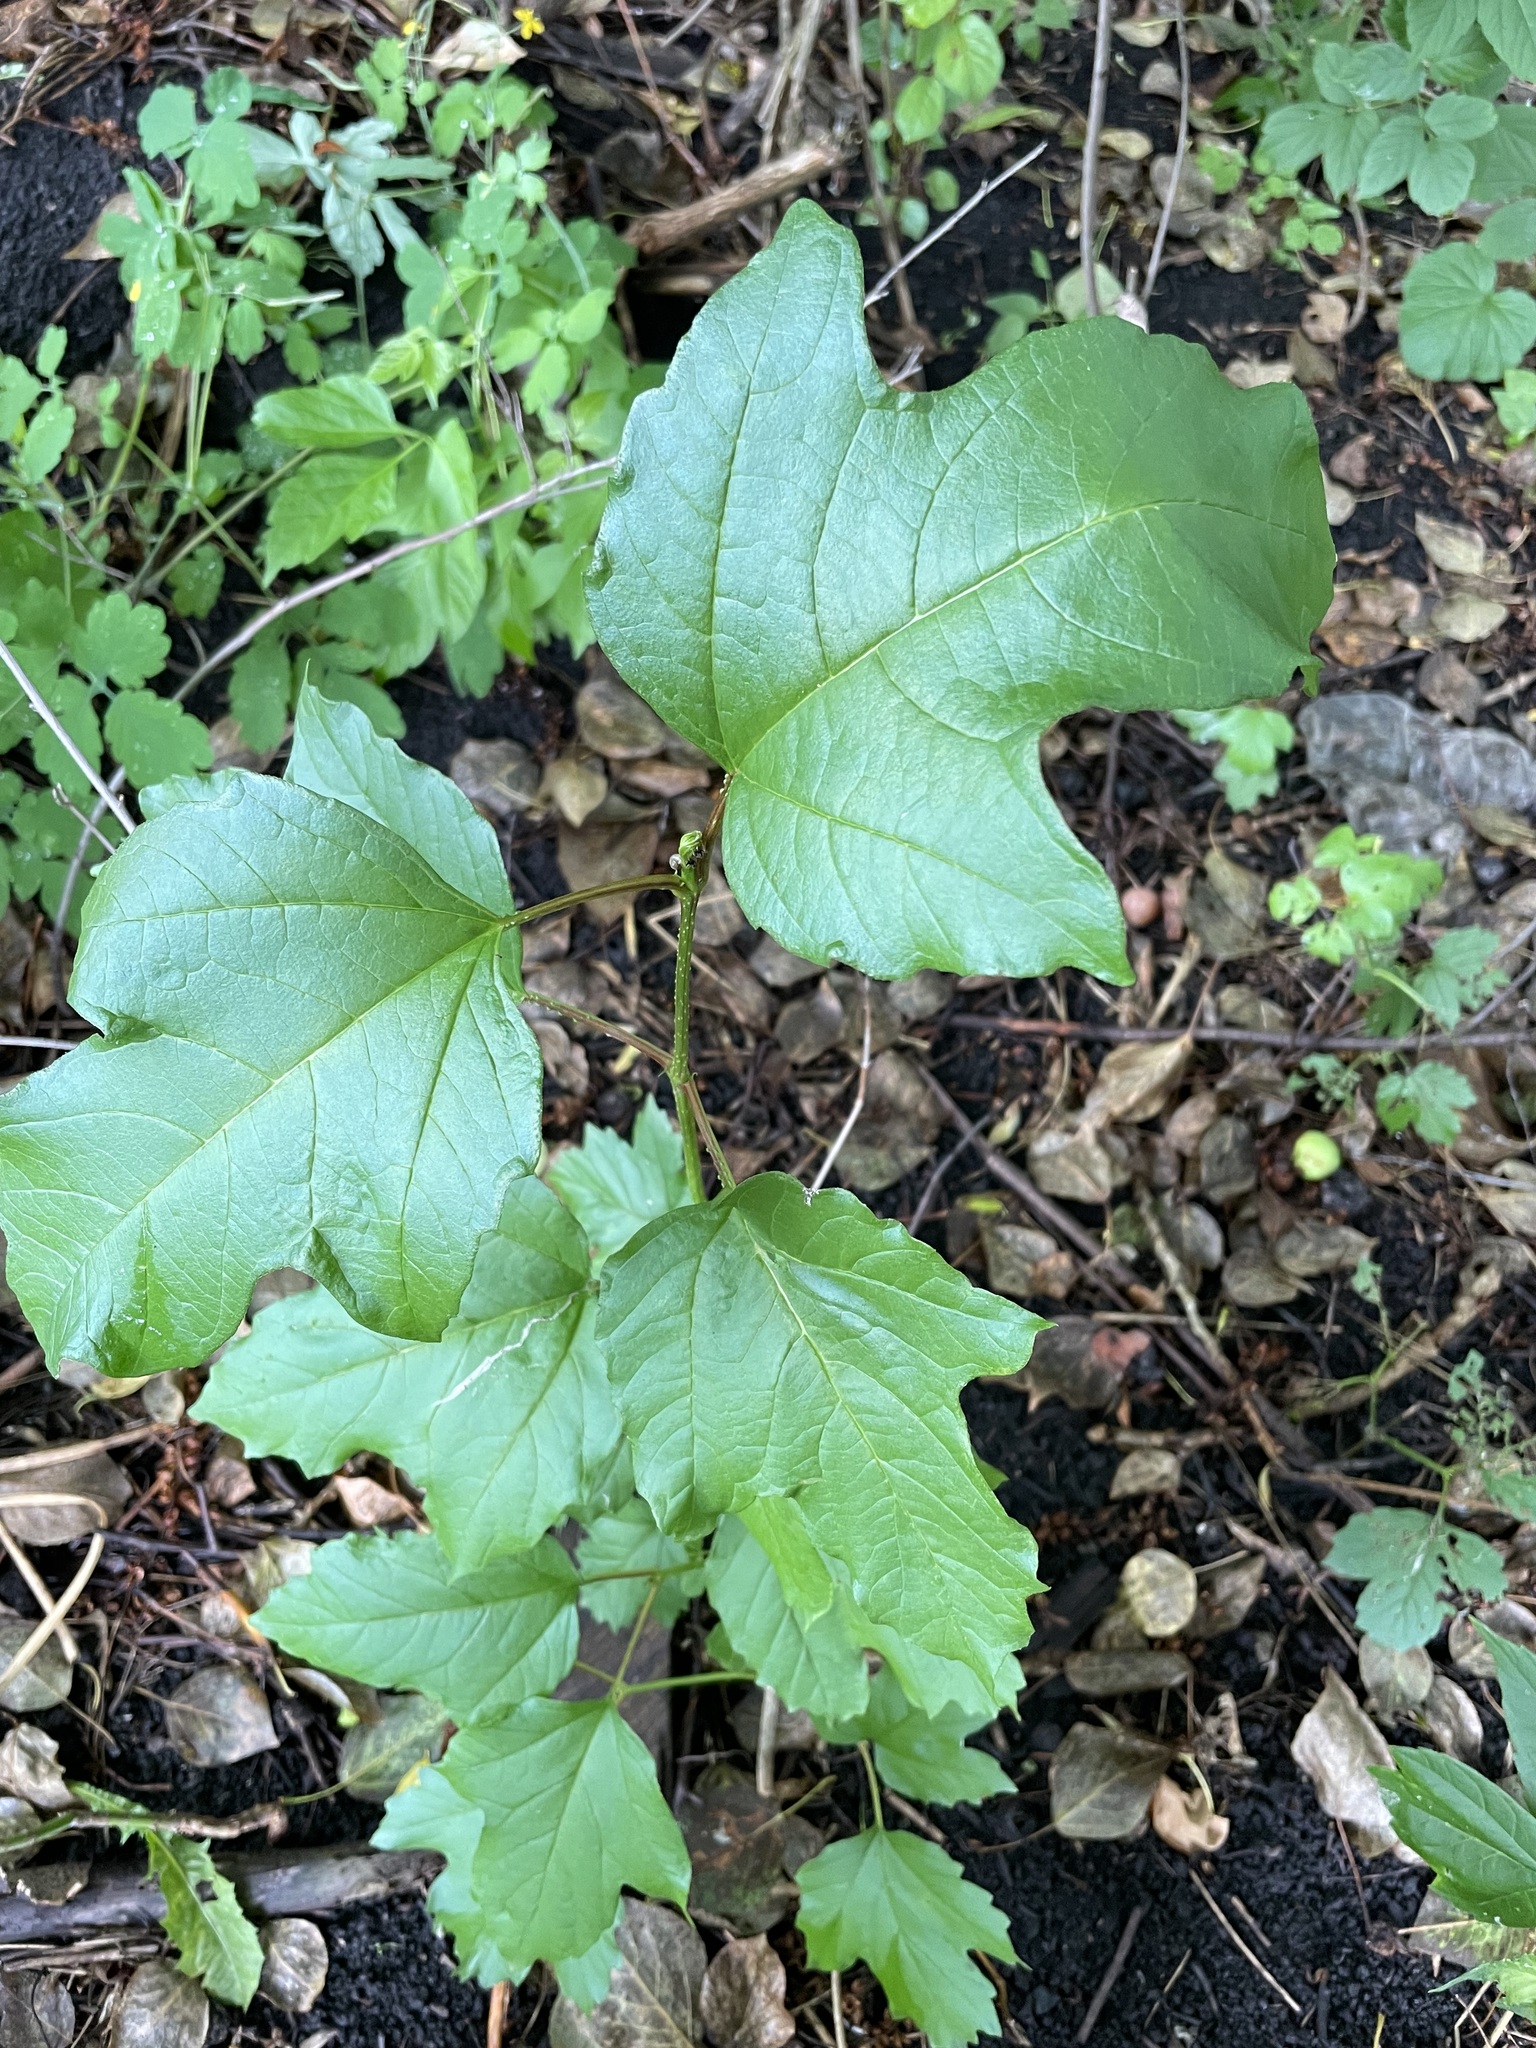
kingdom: Plantae
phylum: Tracheophyta
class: Magnoliopsida
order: Dipsacales
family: Viburnaceae
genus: Viburnum
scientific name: Viburnum opulus
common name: Guelder-rose
